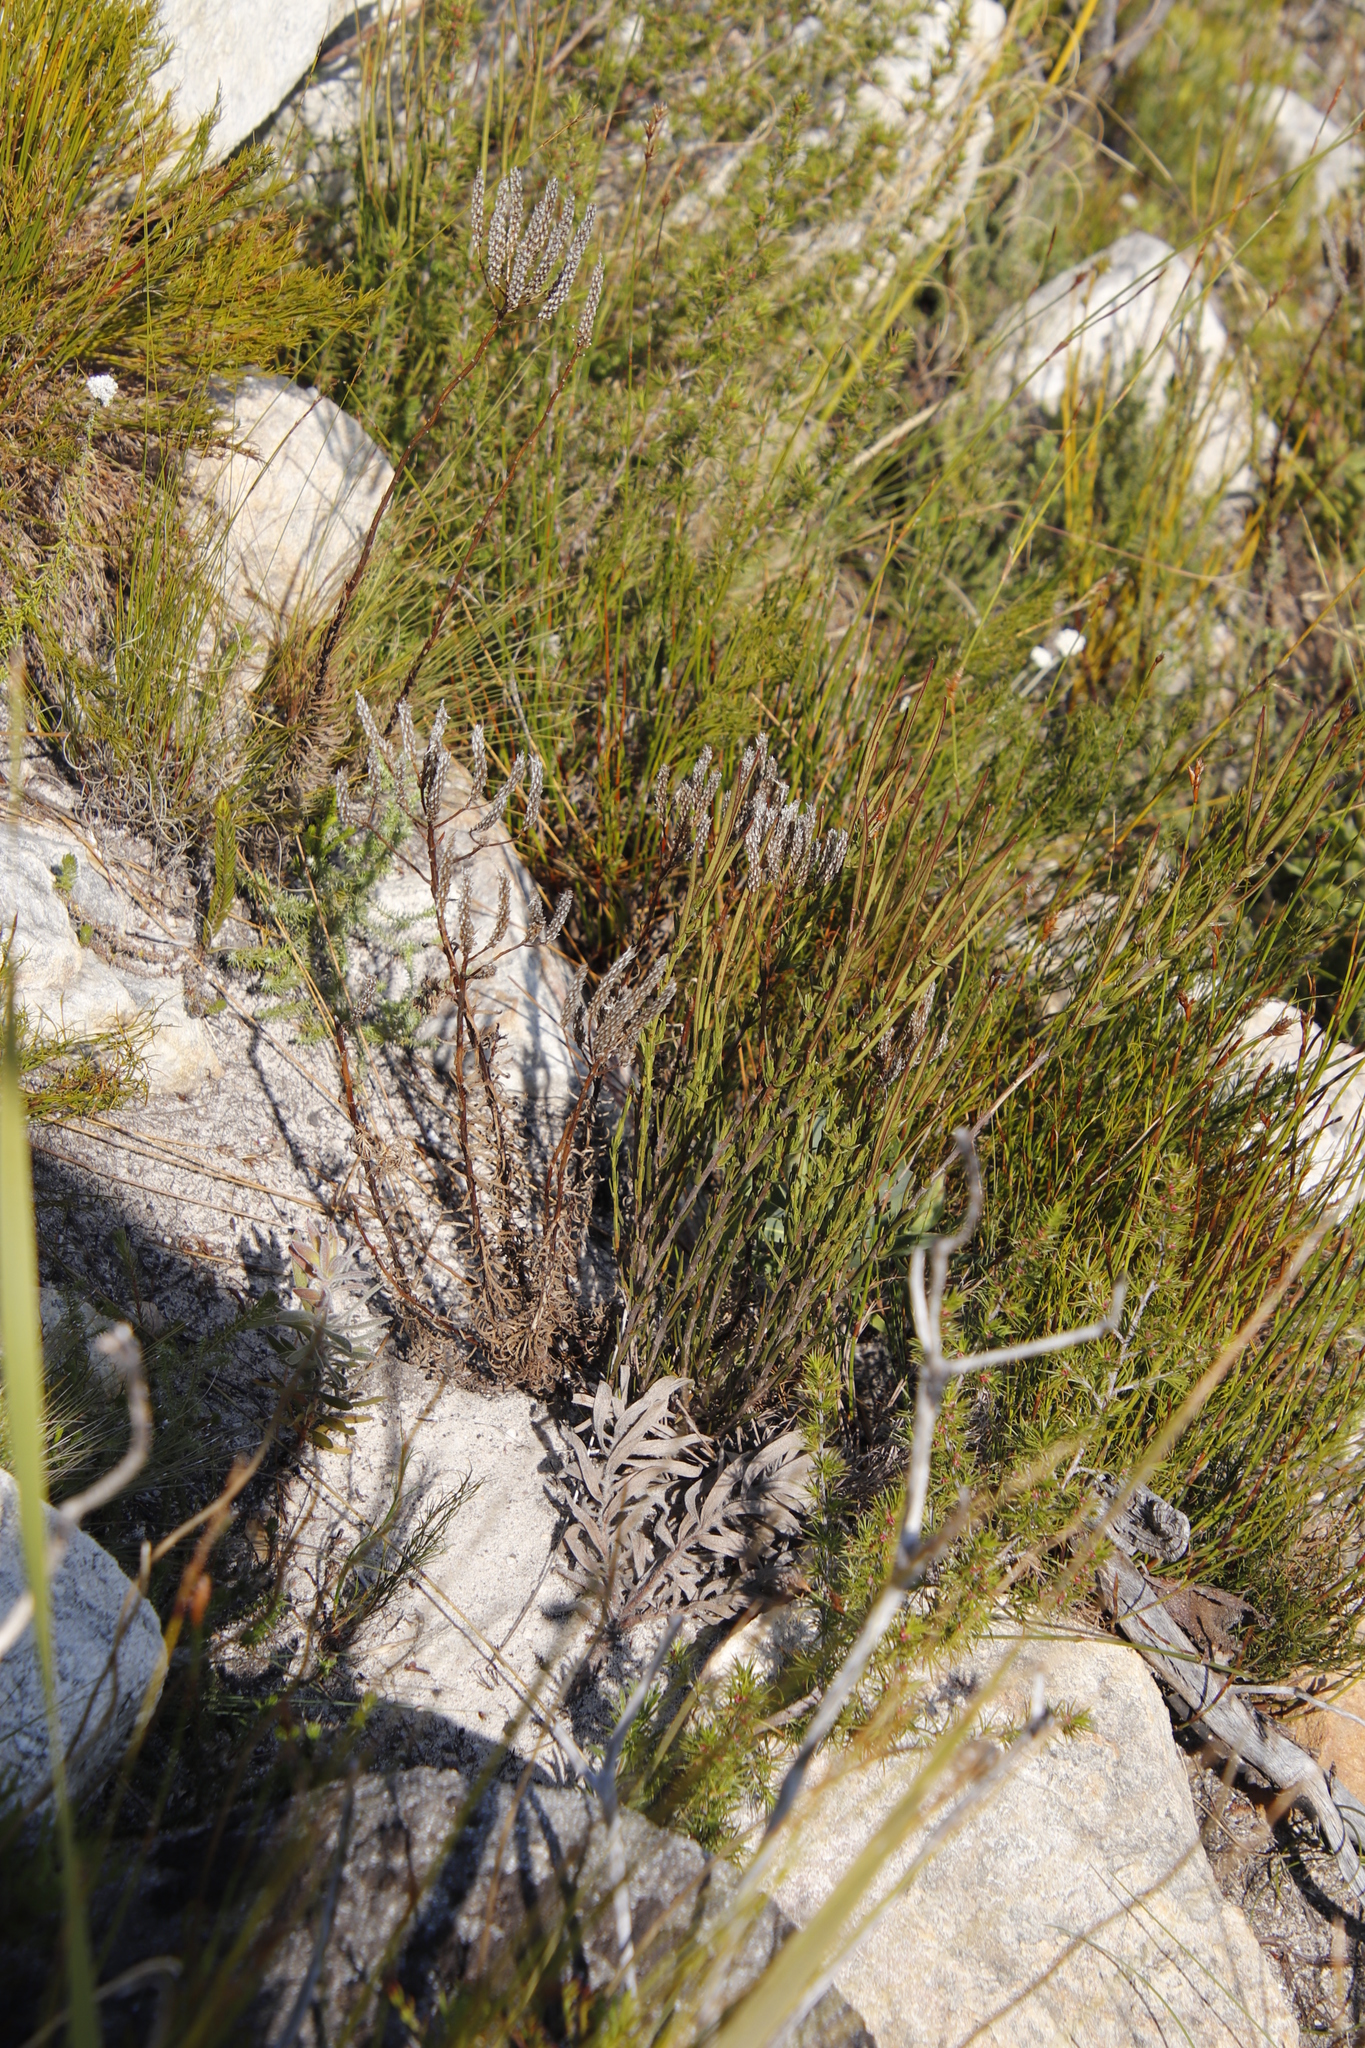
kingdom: Plantae
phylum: Tracheophyta
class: Magnoliopsida
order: Brassicales
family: Brassicaceae
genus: Heliophila
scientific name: Heliophila scoparia
